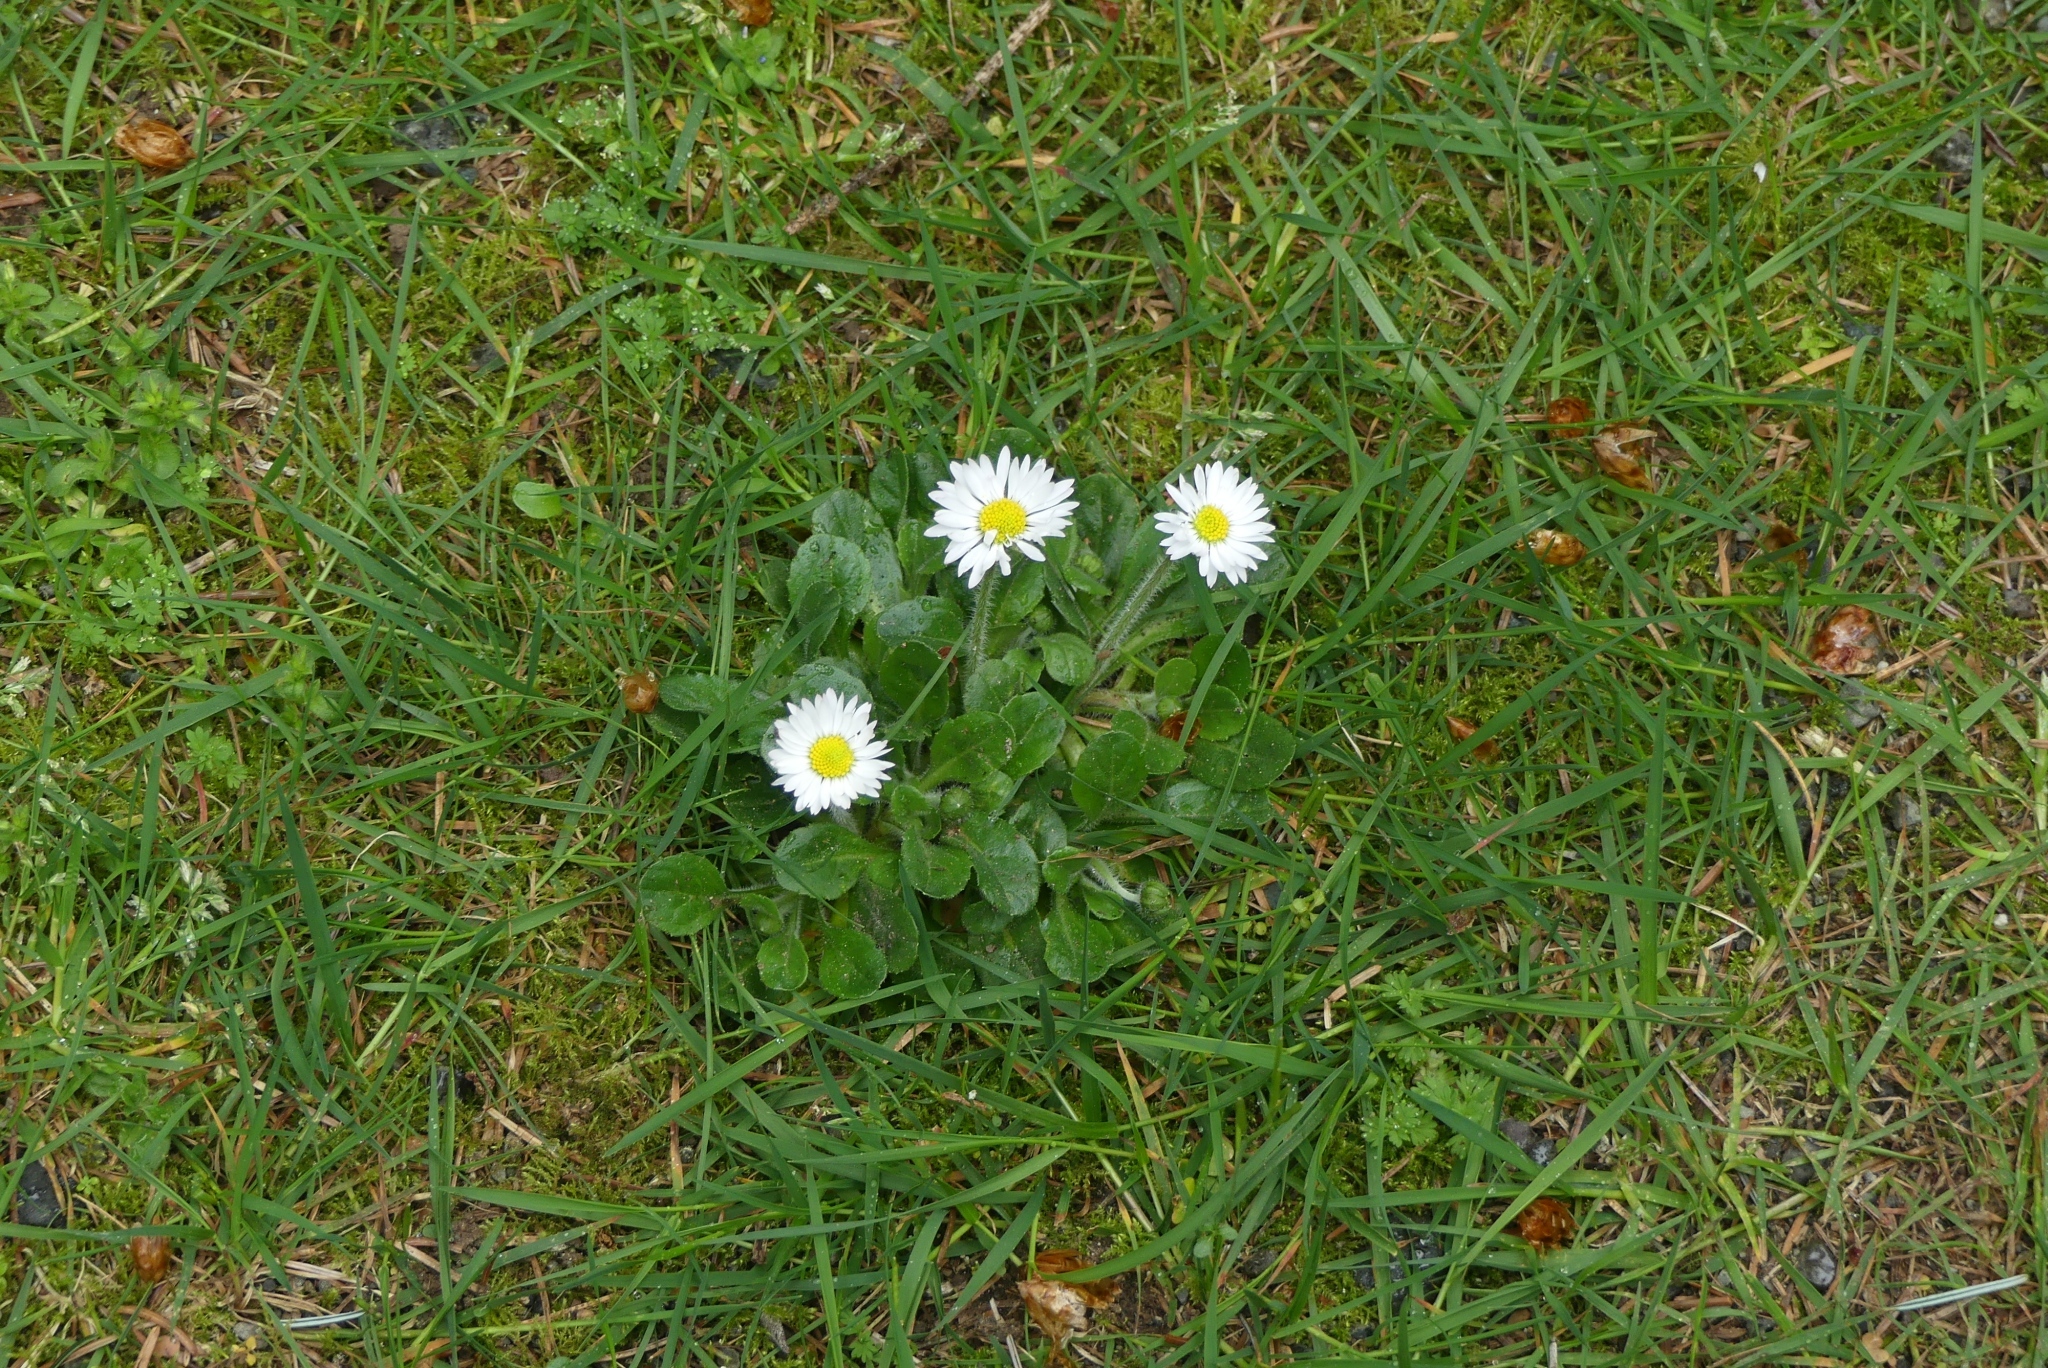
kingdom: Plantae
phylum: Tracheophyta
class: Magnoliopsida
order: Asterales
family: Asteraceae
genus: Bellis
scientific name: Bellis perennis
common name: Lawndaisy
